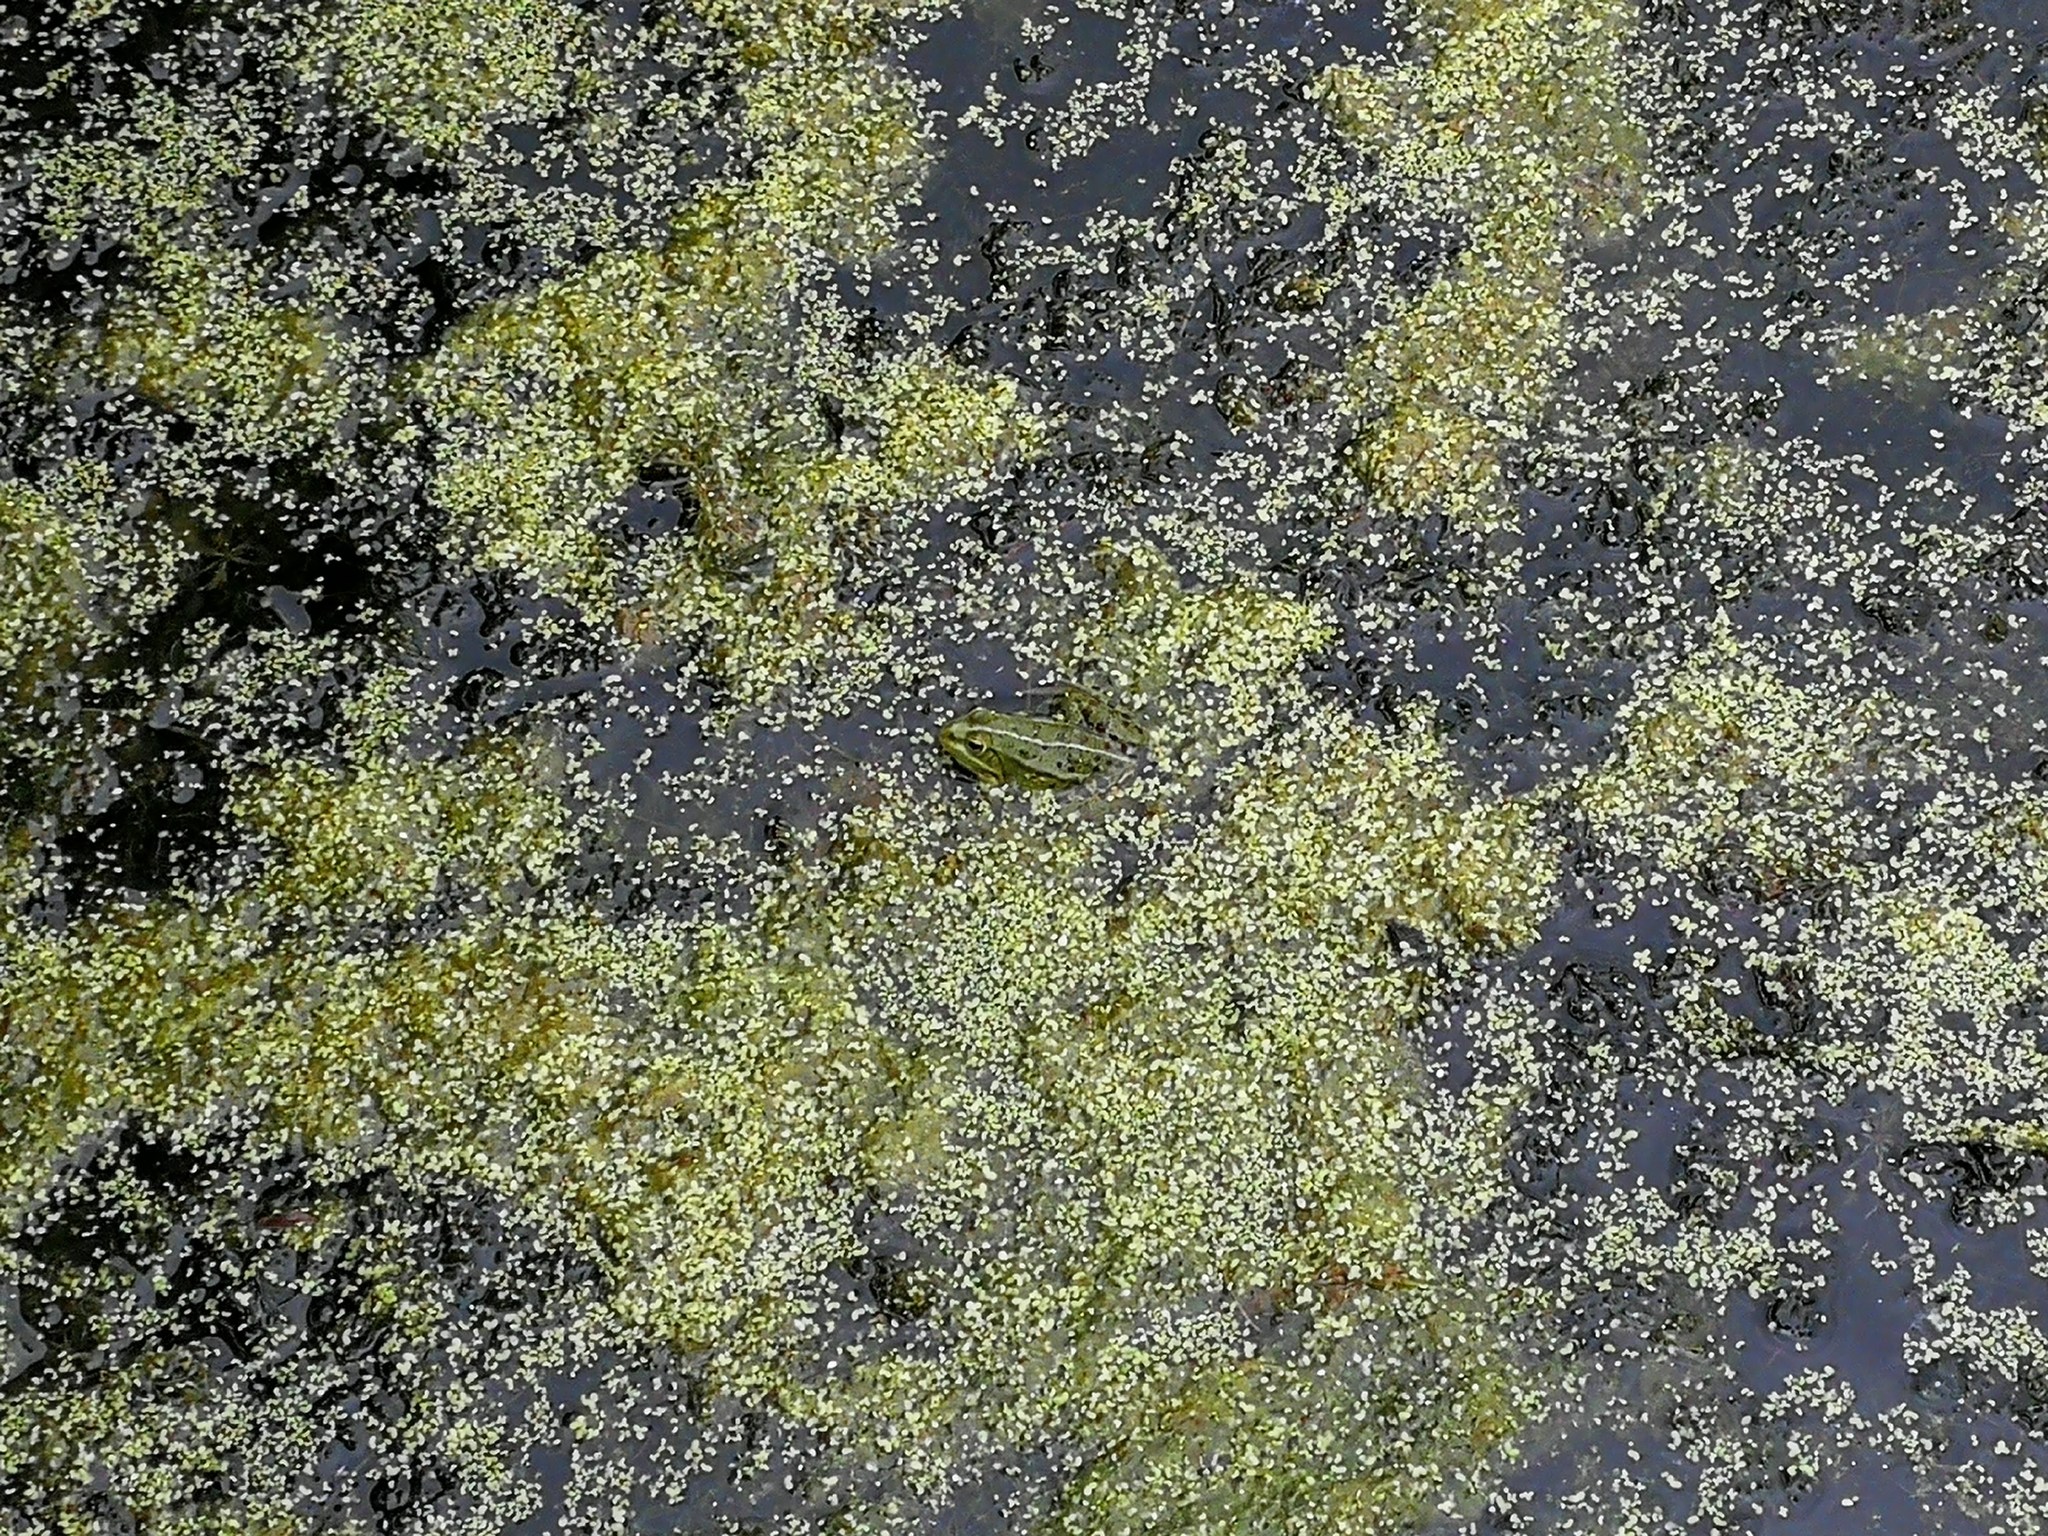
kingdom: Animalia
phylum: Chordata
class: Amphibia
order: Anura
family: Ranidae
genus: Pelophylax
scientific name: Pelophylax
